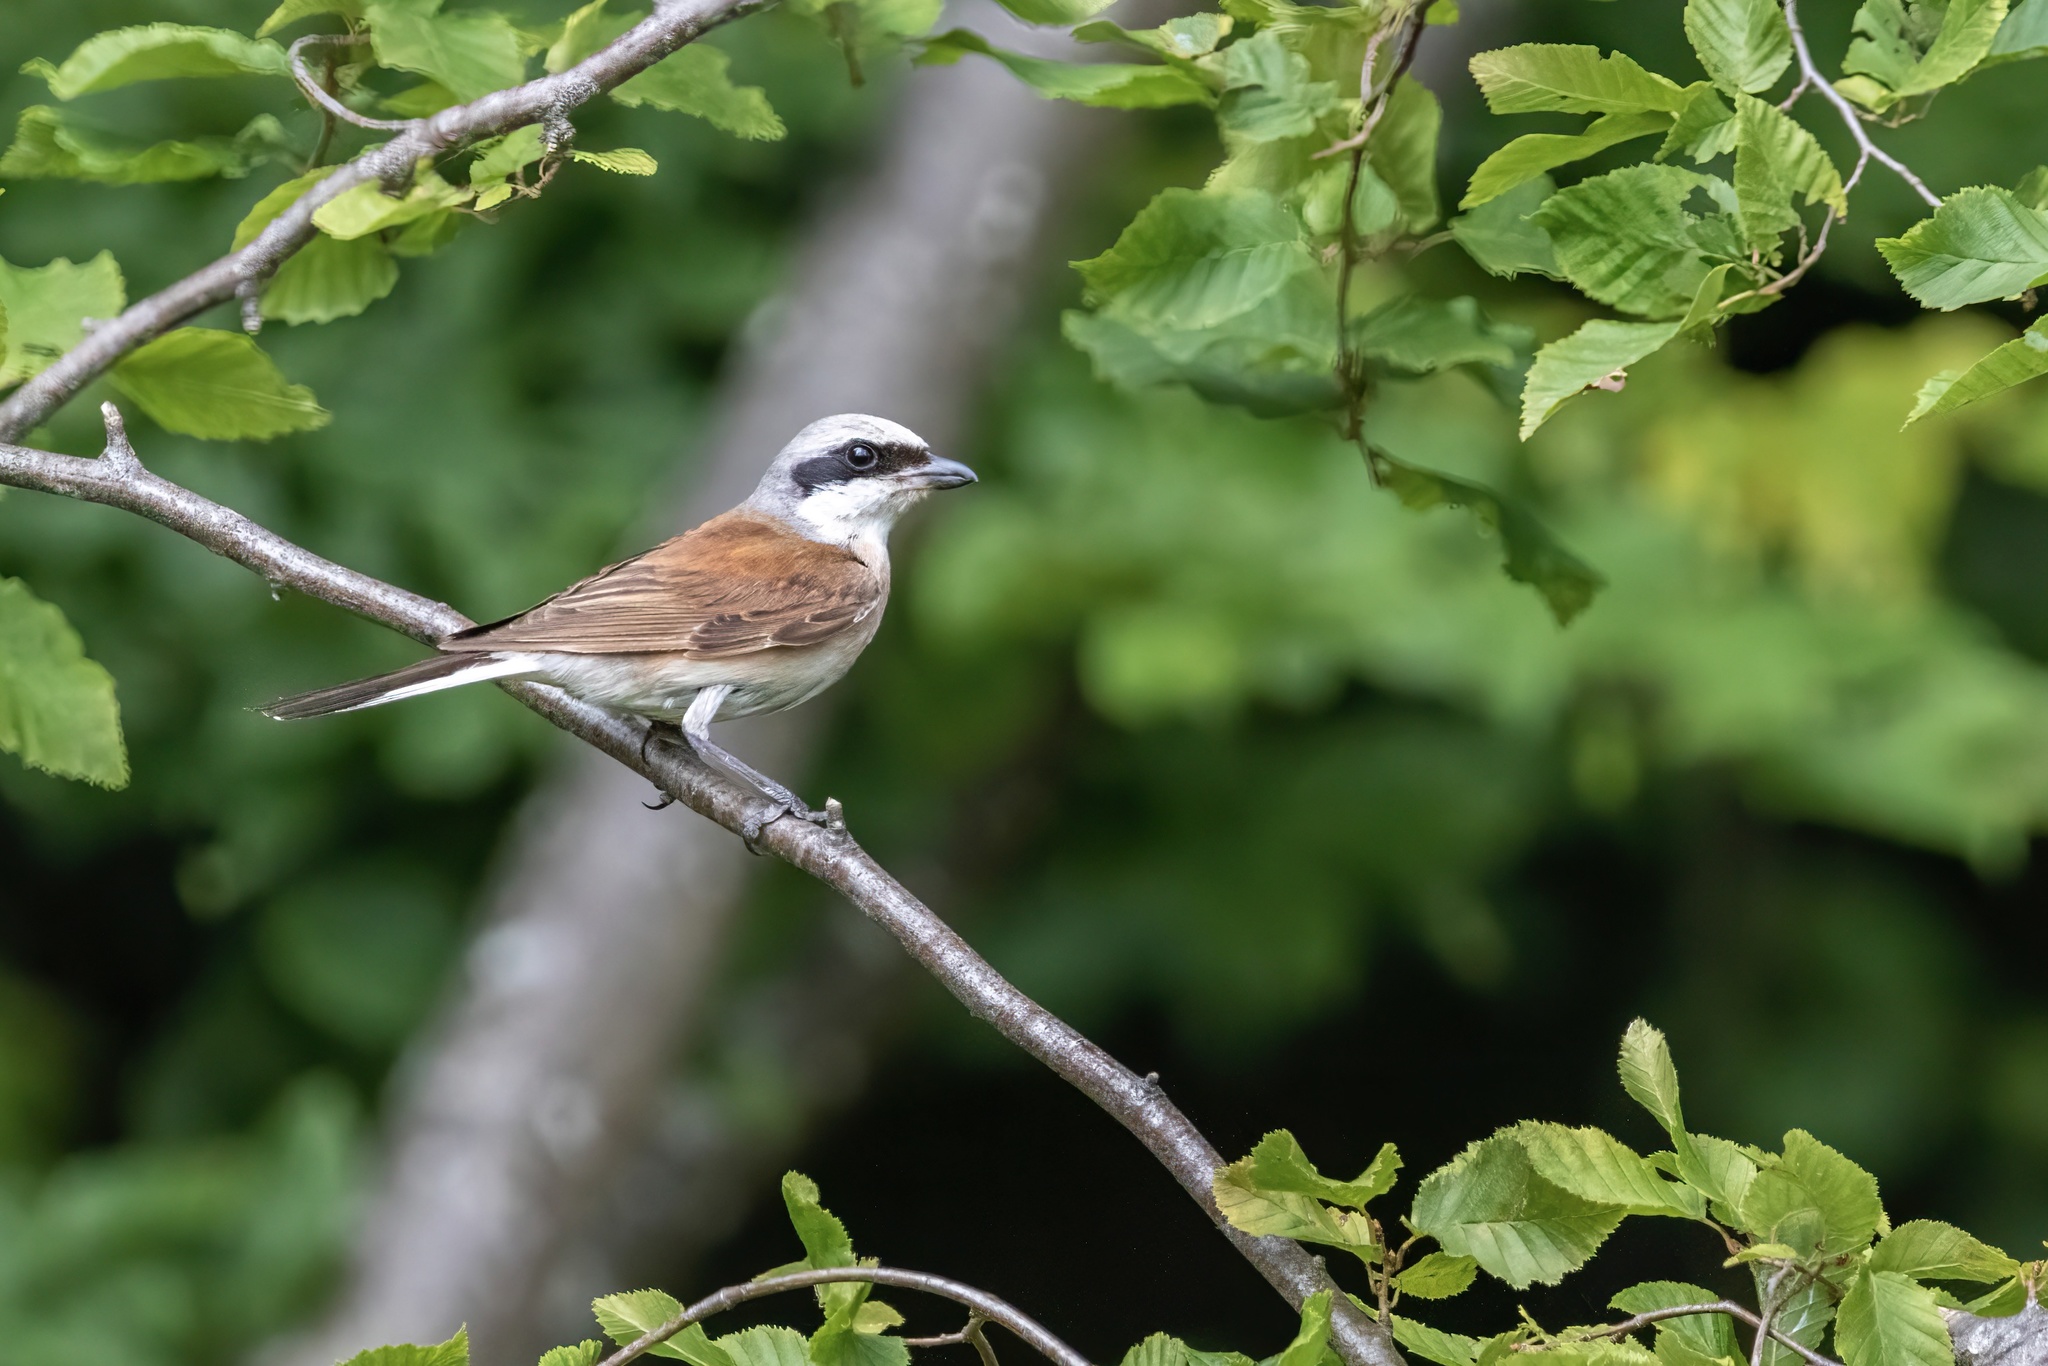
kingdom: Animalia
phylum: Chordata
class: Aves
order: Passeriformes
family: Laniidae
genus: Lanius
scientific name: Lanius collurio
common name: Red-backed shrike
